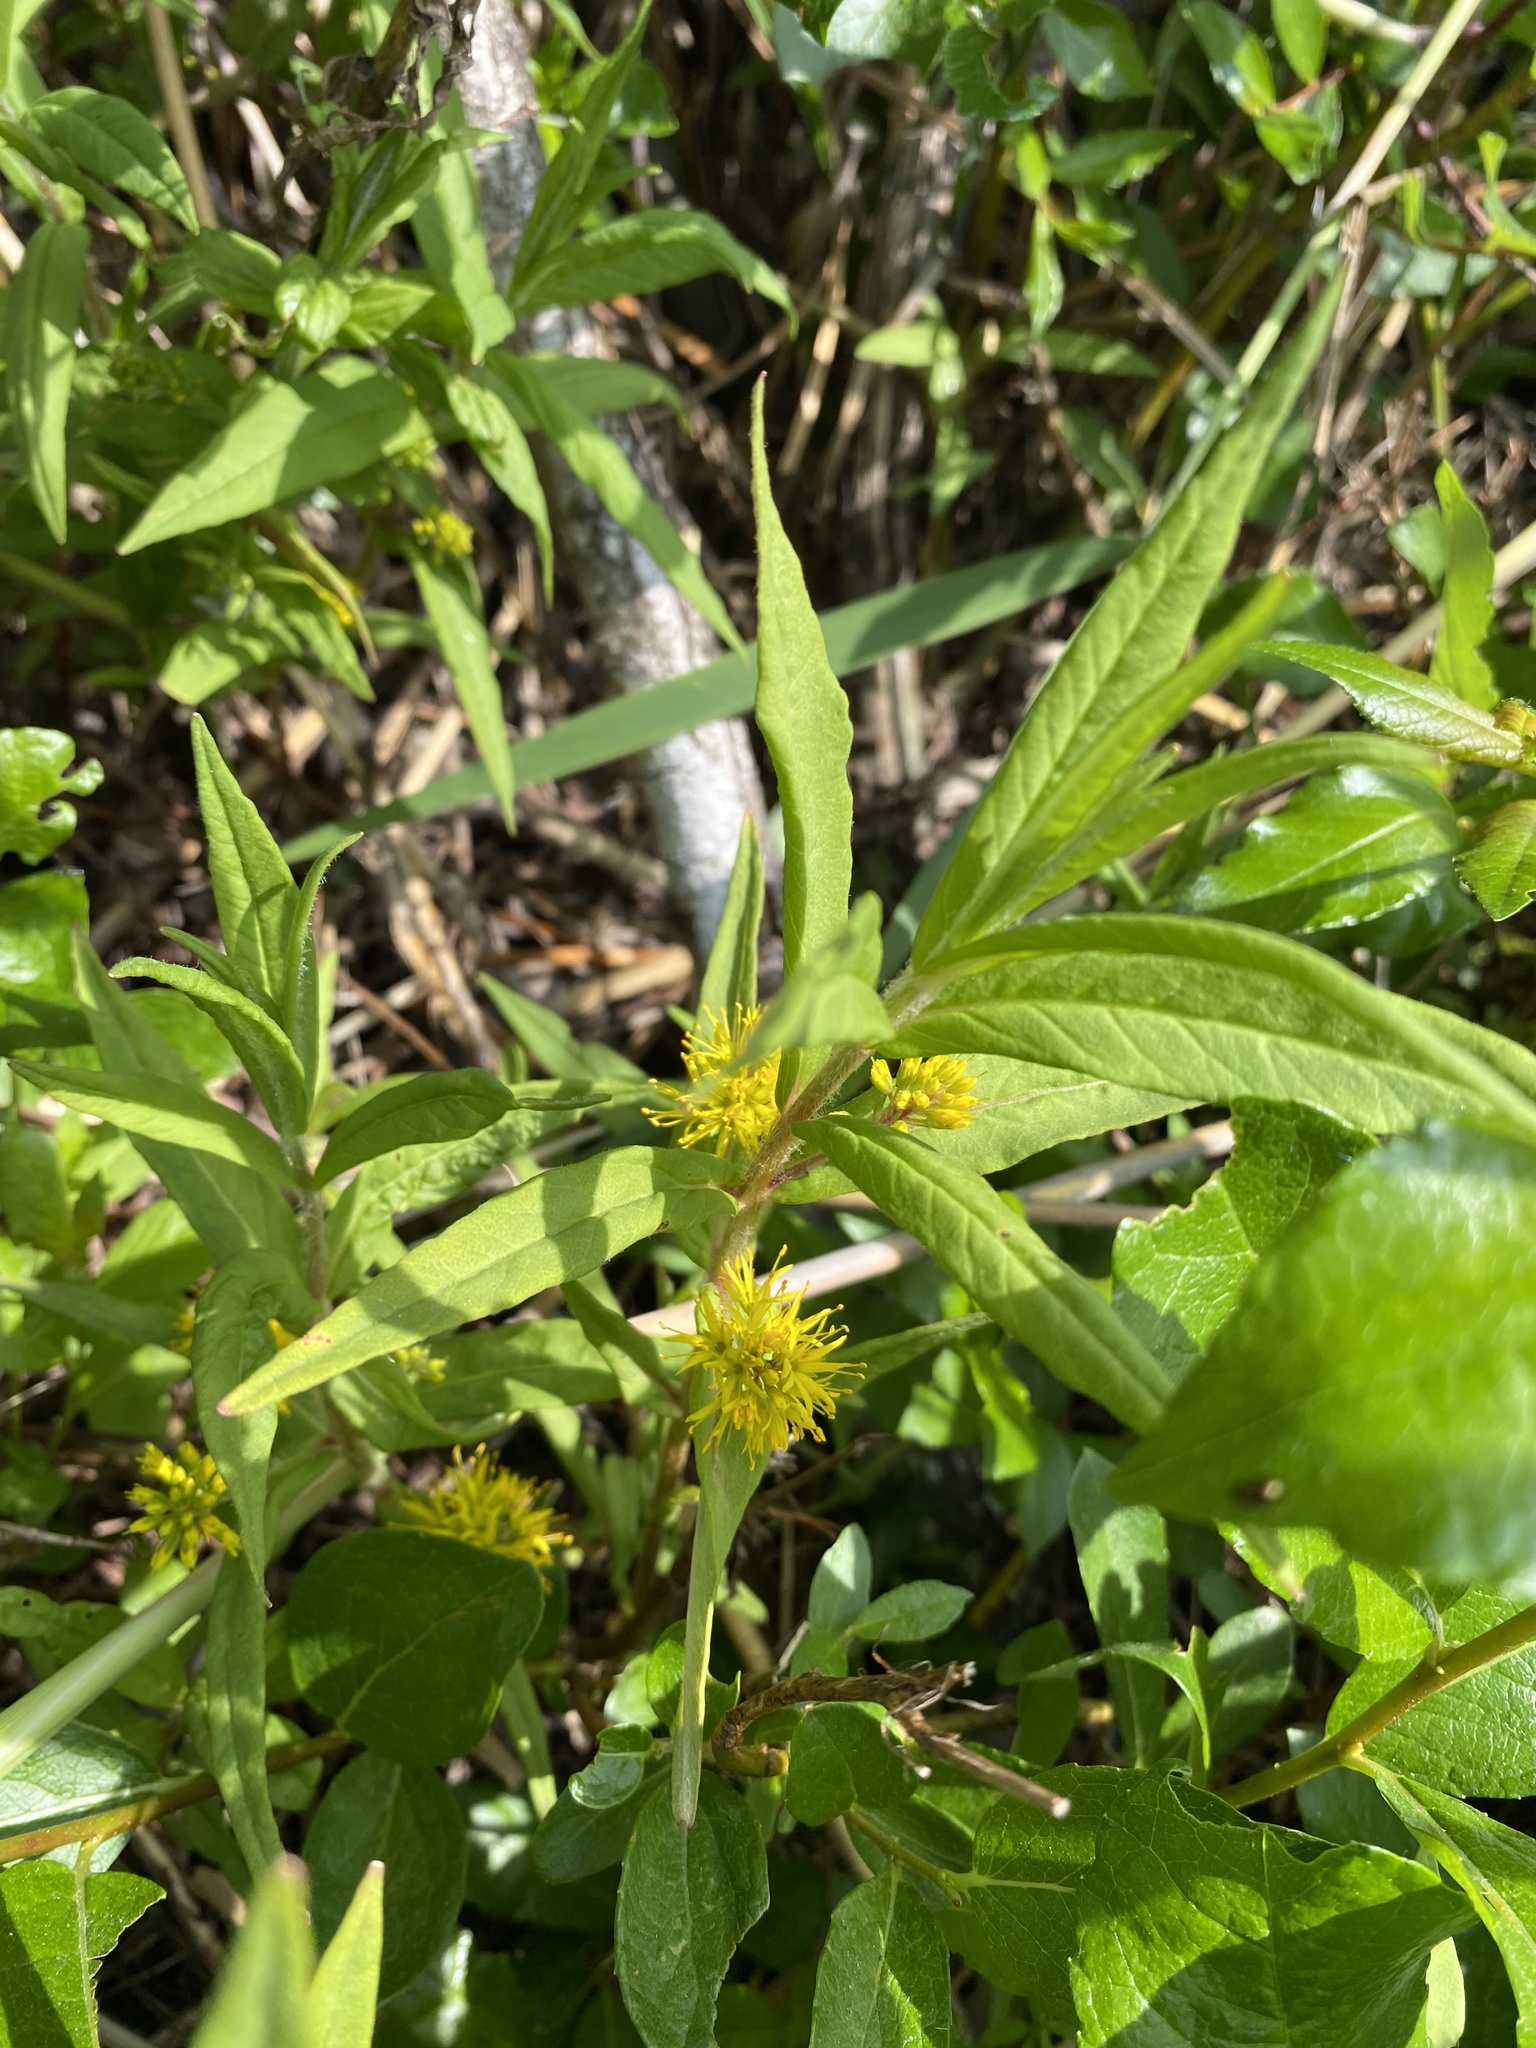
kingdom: Plantae
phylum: Tracheophyta
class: Magnoliopsida
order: Ericales
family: Primulaceae
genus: Lysimachia
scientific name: Lysimachia thyrsiflora
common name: Tufted loosestrife
